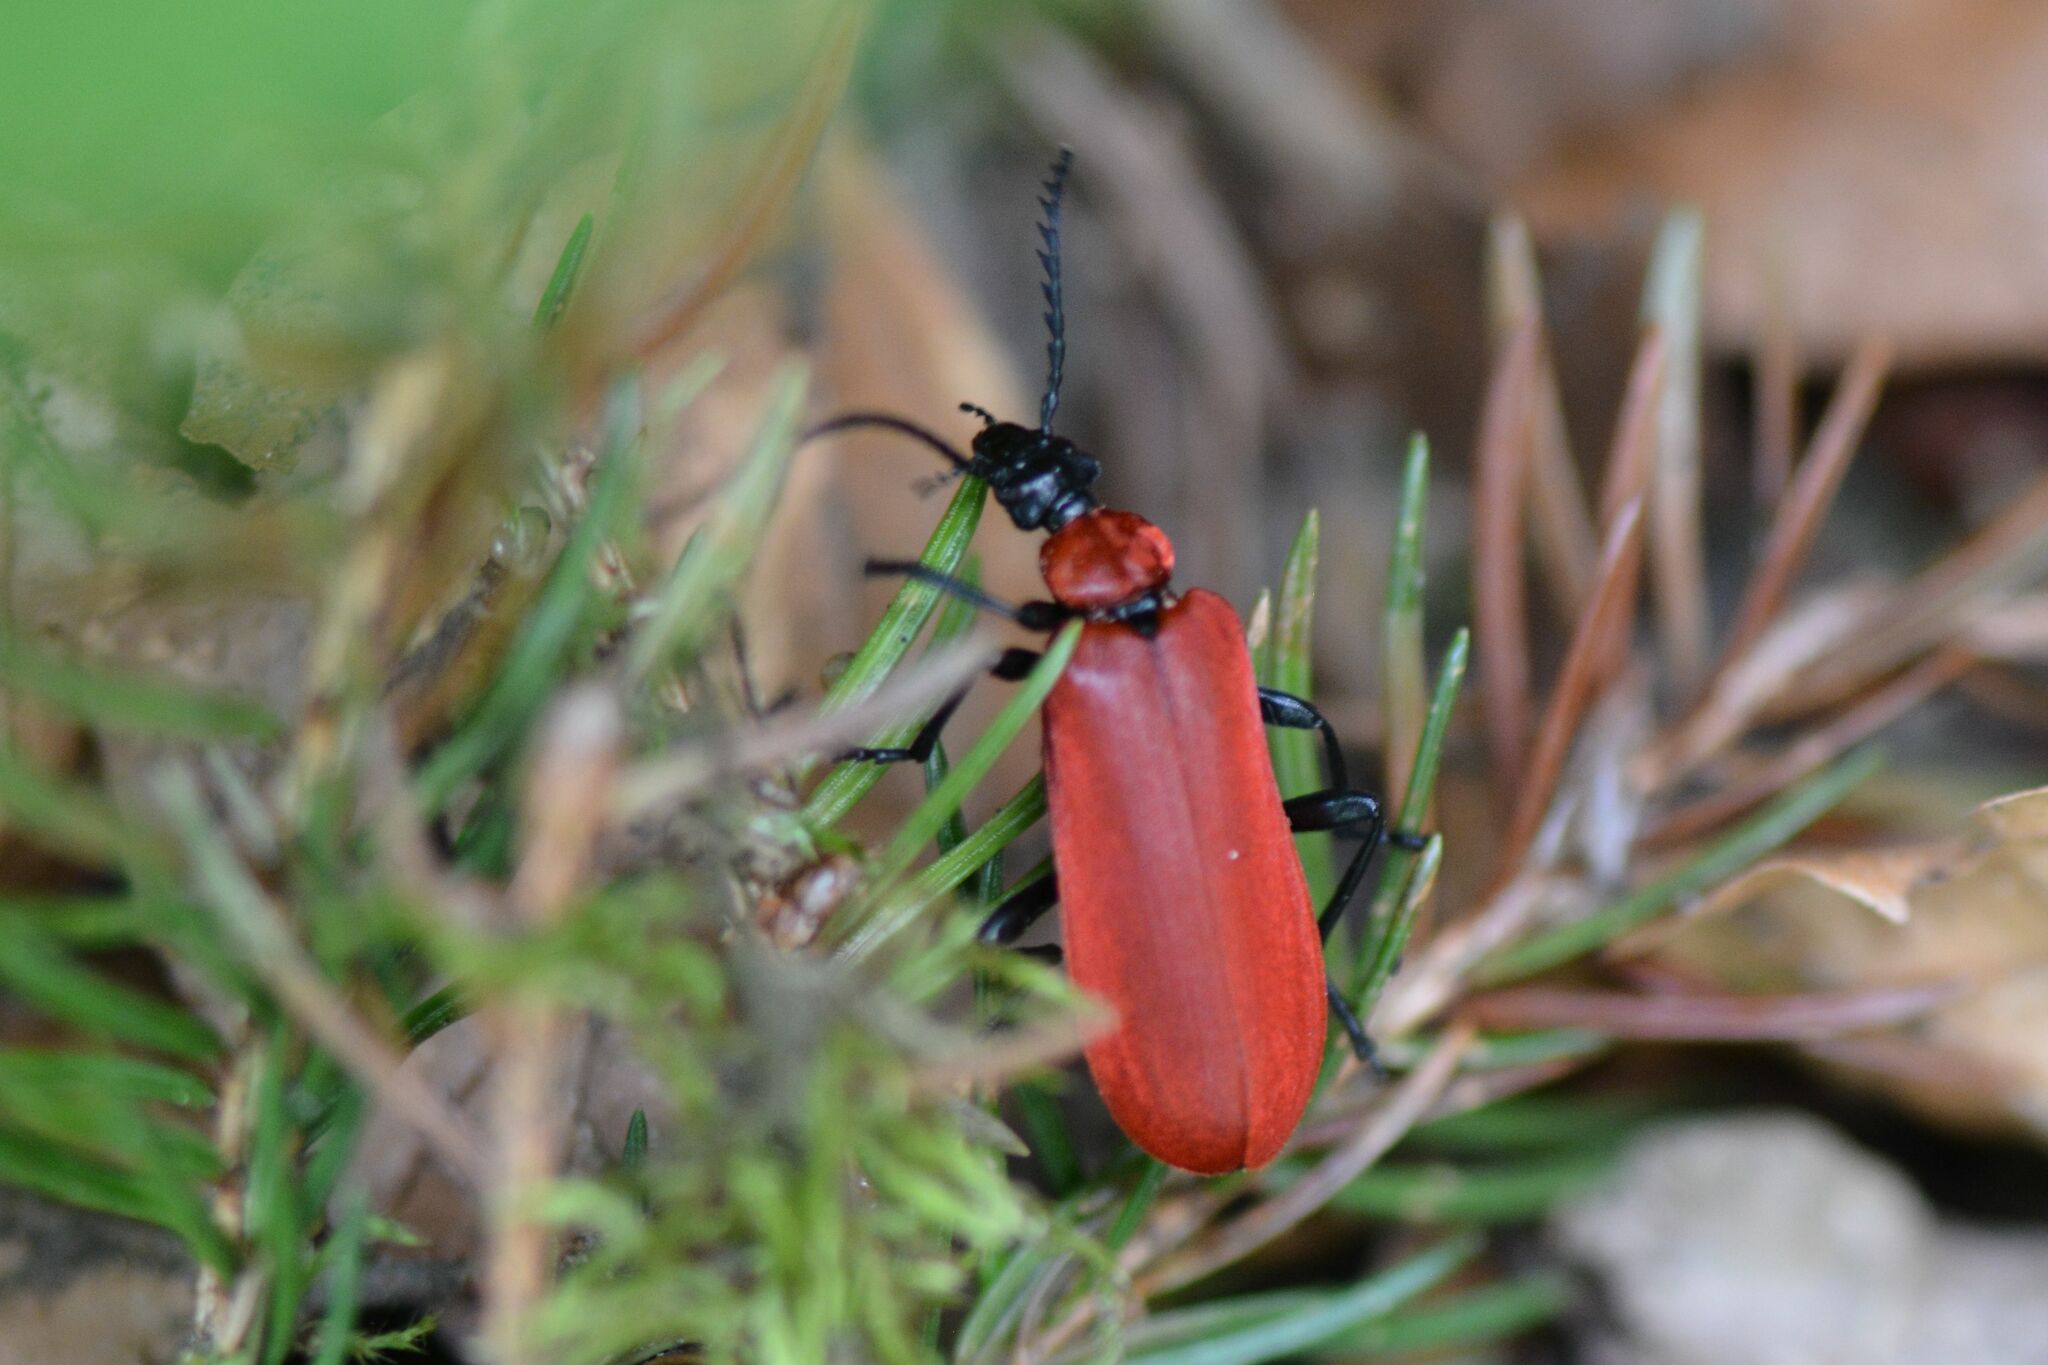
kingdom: Animalia
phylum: Arthropoda
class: Insecta
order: Coleoptera
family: Pyrochroidae
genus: Pyrochroa
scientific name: Pyrochroa coccinea
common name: Black-headed cardinal beetle
